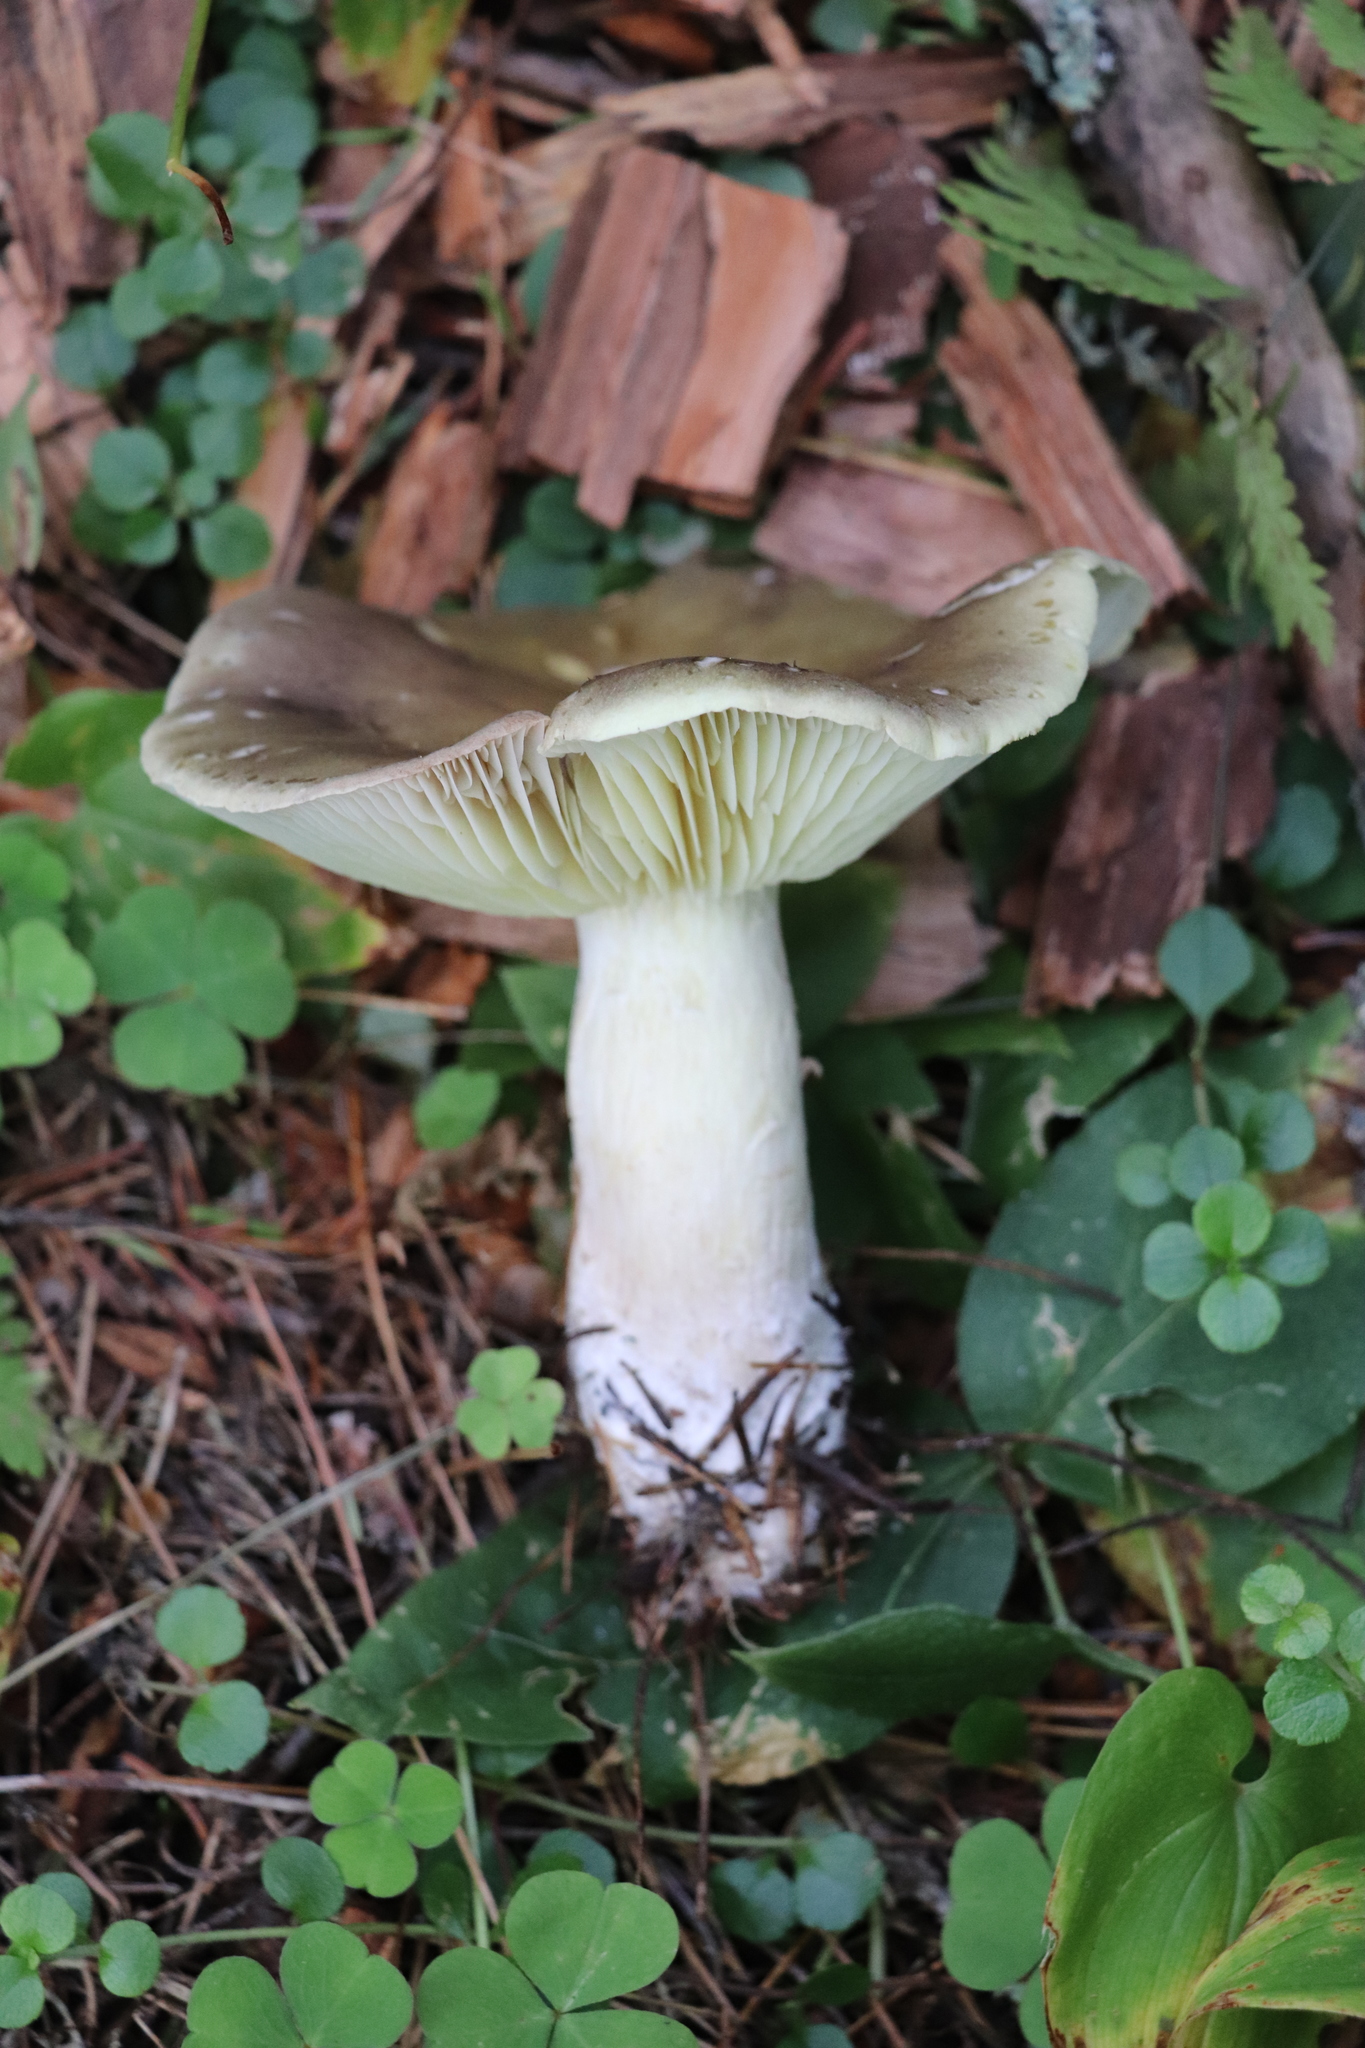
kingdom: Fungi
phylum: Basidiomycota
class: Agaricomycetes
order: Agaricales
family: Tricholomataceae
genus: Tricholoma
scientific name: Tricholoma rapipes
